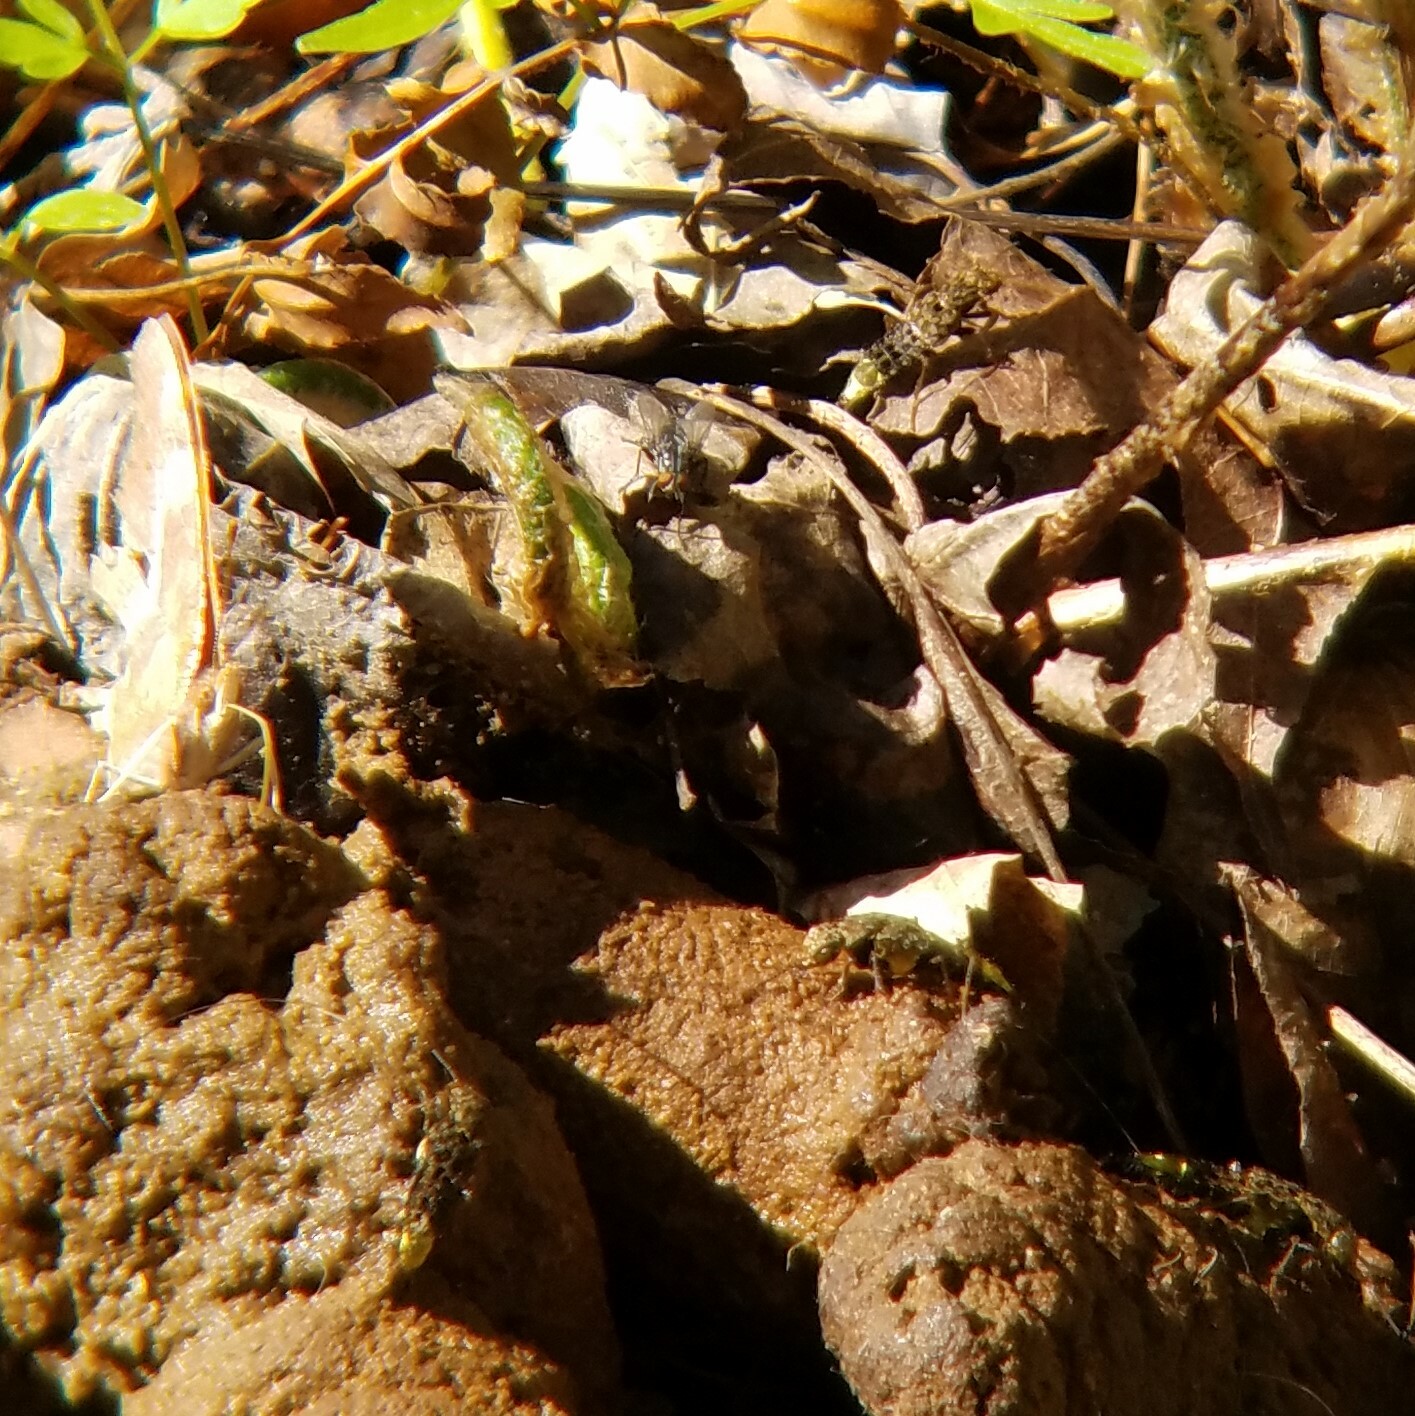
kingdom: Animalia
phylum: Arthropoda
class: Insecta
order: Coleoptera
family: Staphylinidae
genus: Ontholestes
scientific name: Ontholestes cingulatus
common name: Gold-and-brown rove beetle
